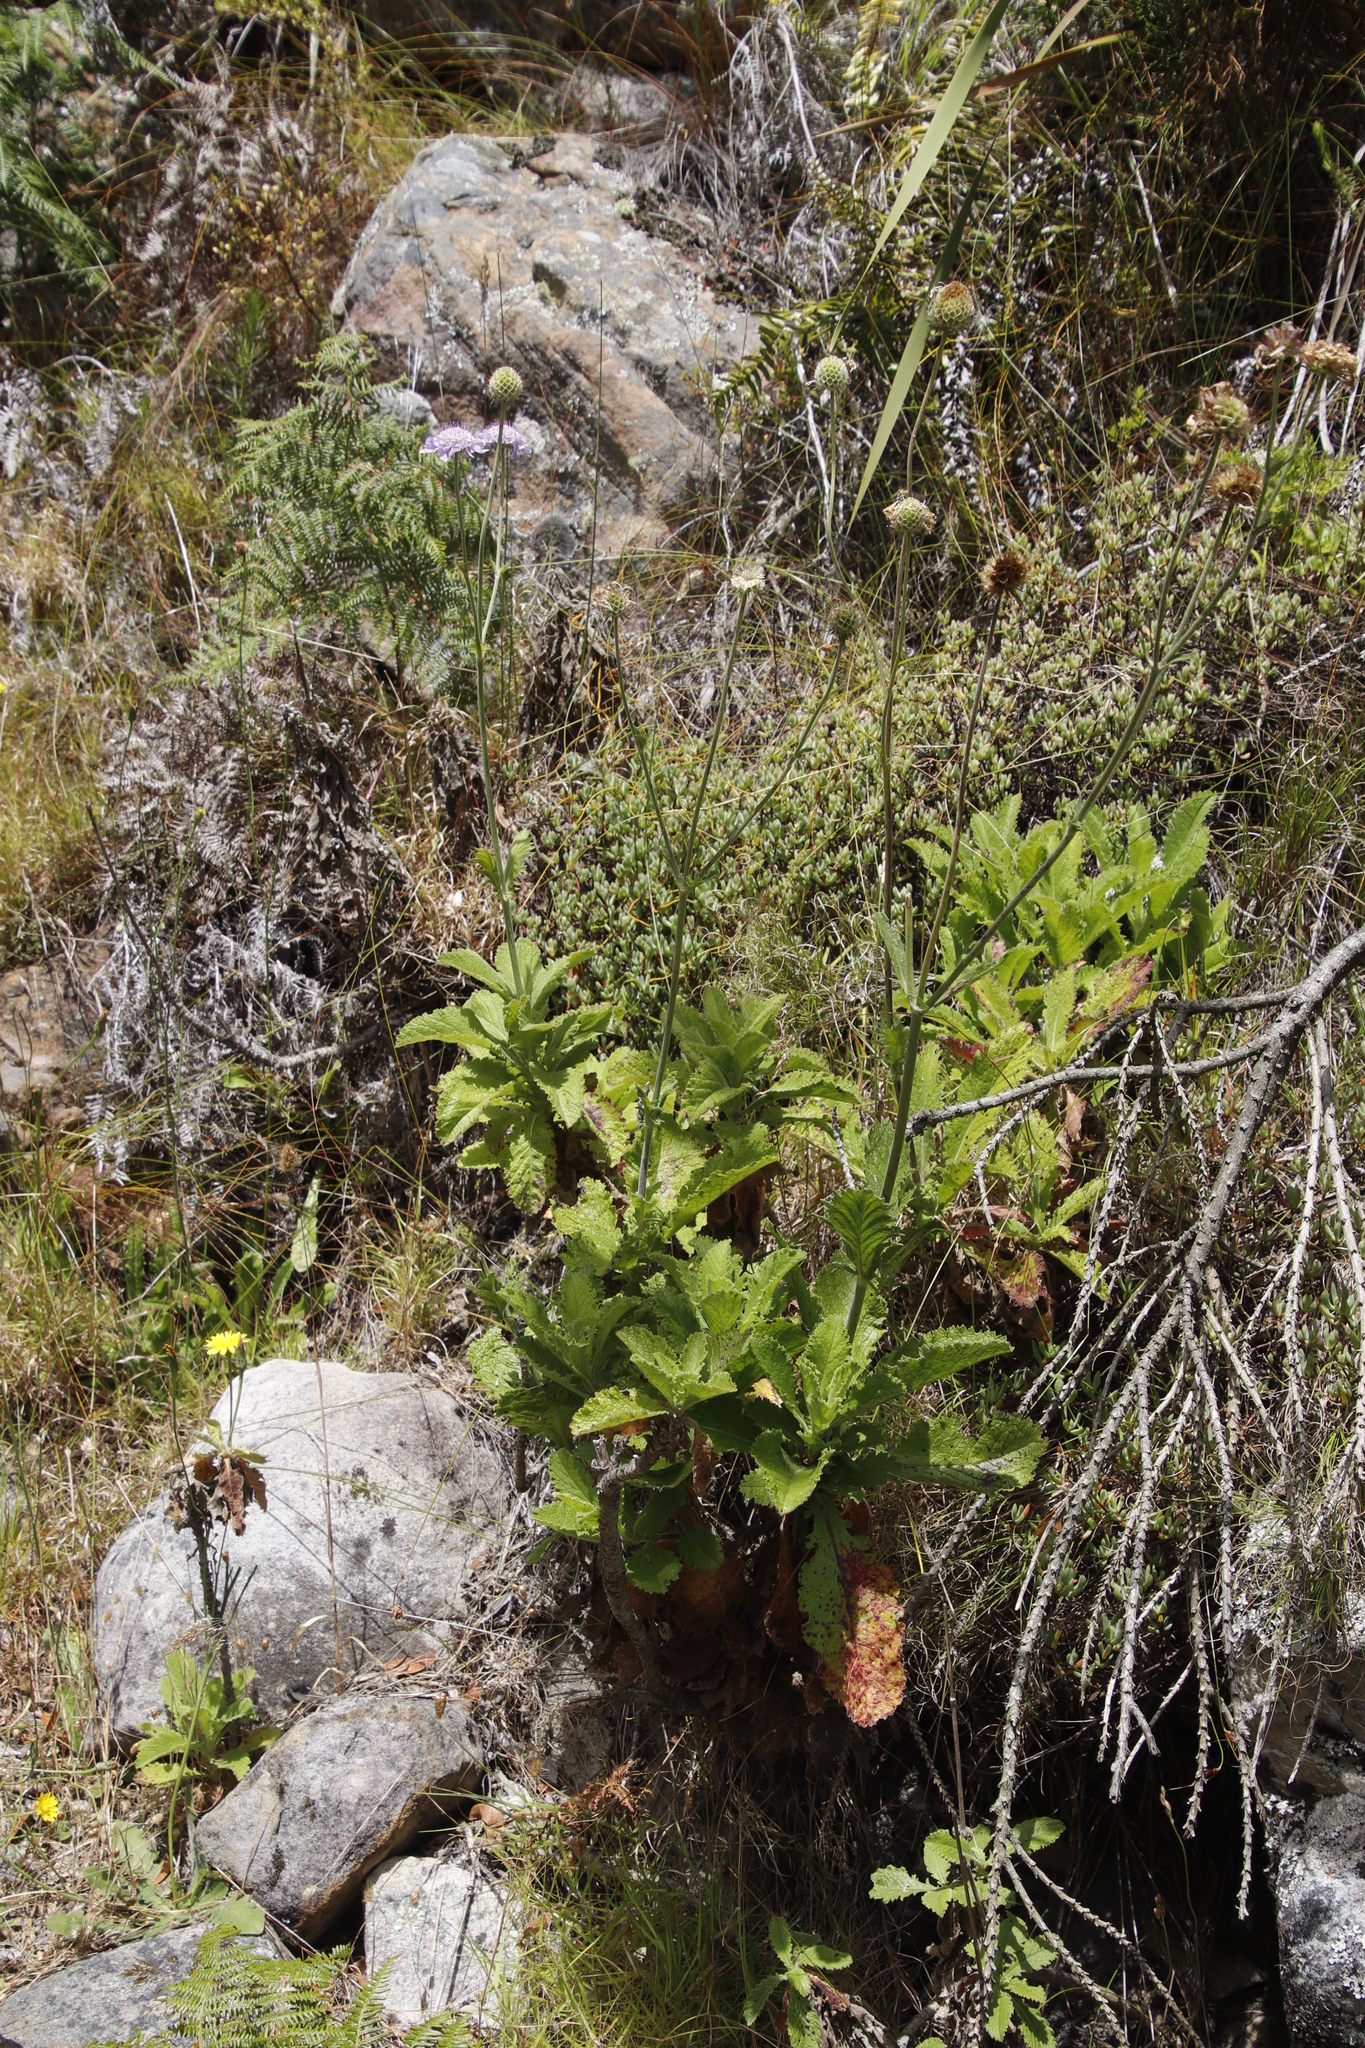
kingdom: Plantae
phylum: Tracheophyta
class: Magnoliopsida
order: Dipsacales
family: Caprifoliaceae
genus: Scabiosa
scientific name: Scabiosa africana
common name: Cape scabious
